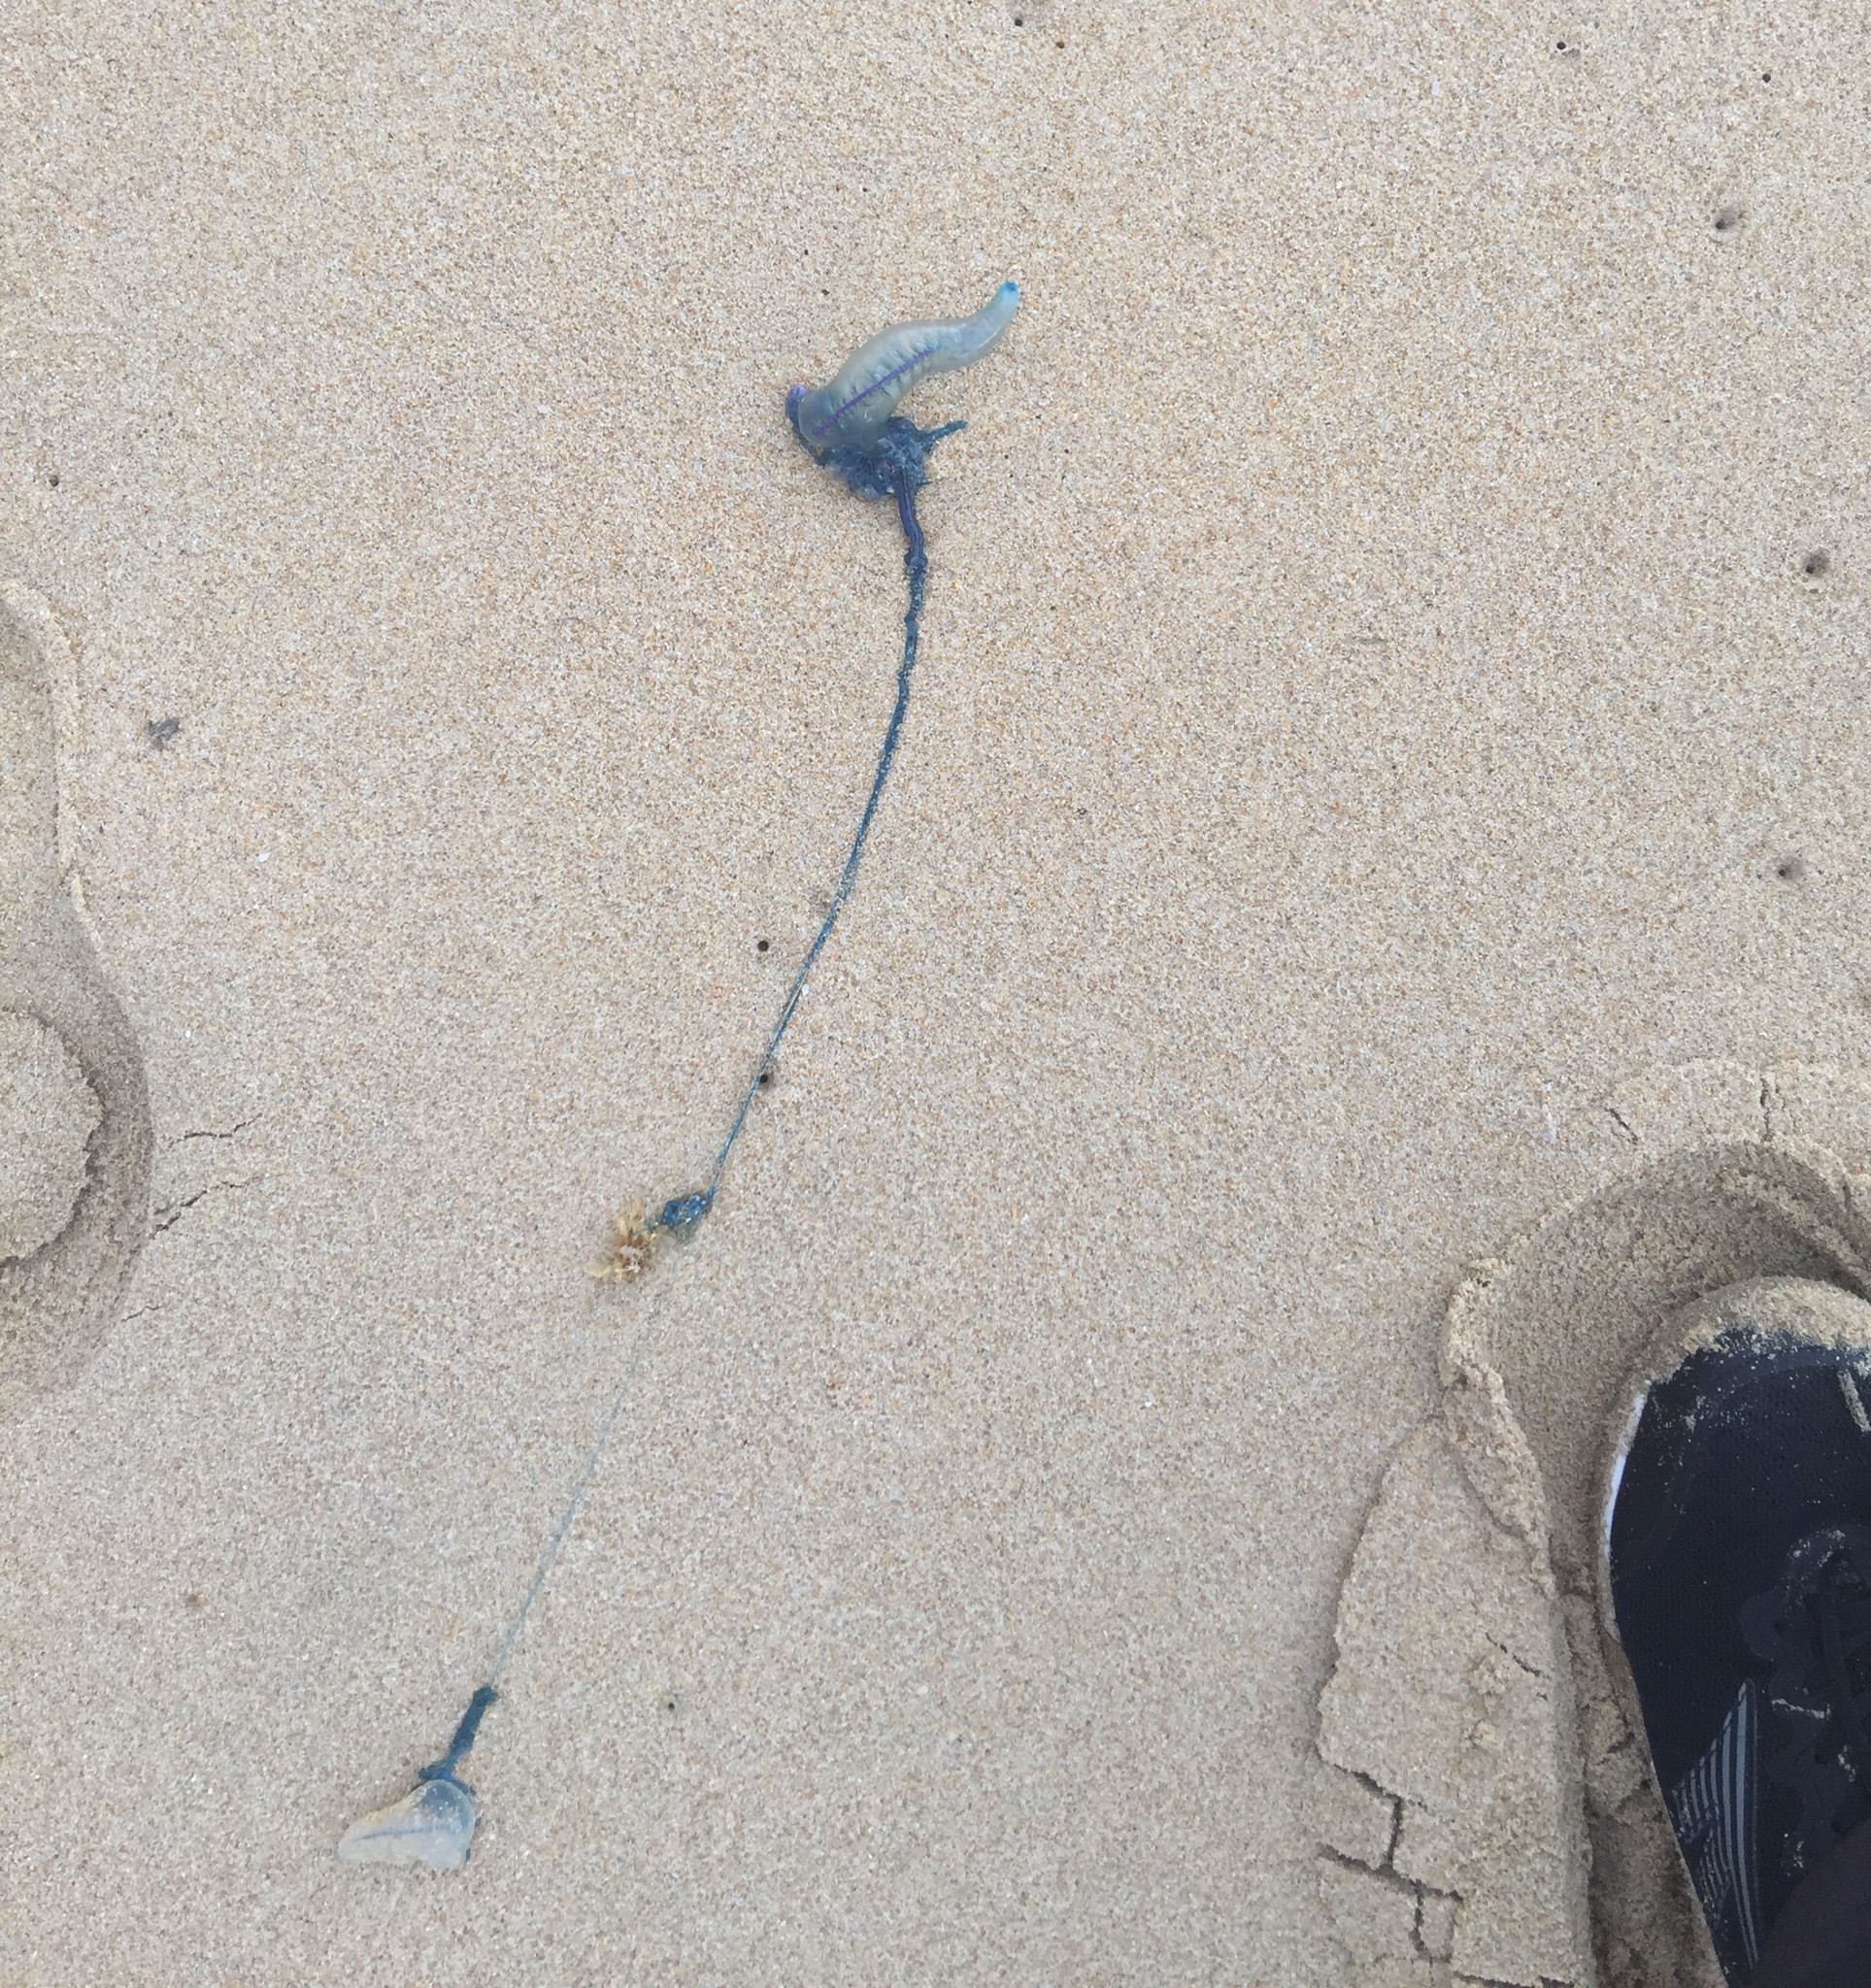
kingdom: Animalia
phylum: Cnidaria
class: Hydrozoa
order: Siphonophorae
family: Physaliidae
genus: Physalia
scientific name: Physalia physalis
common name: Portuguese man-of-war
